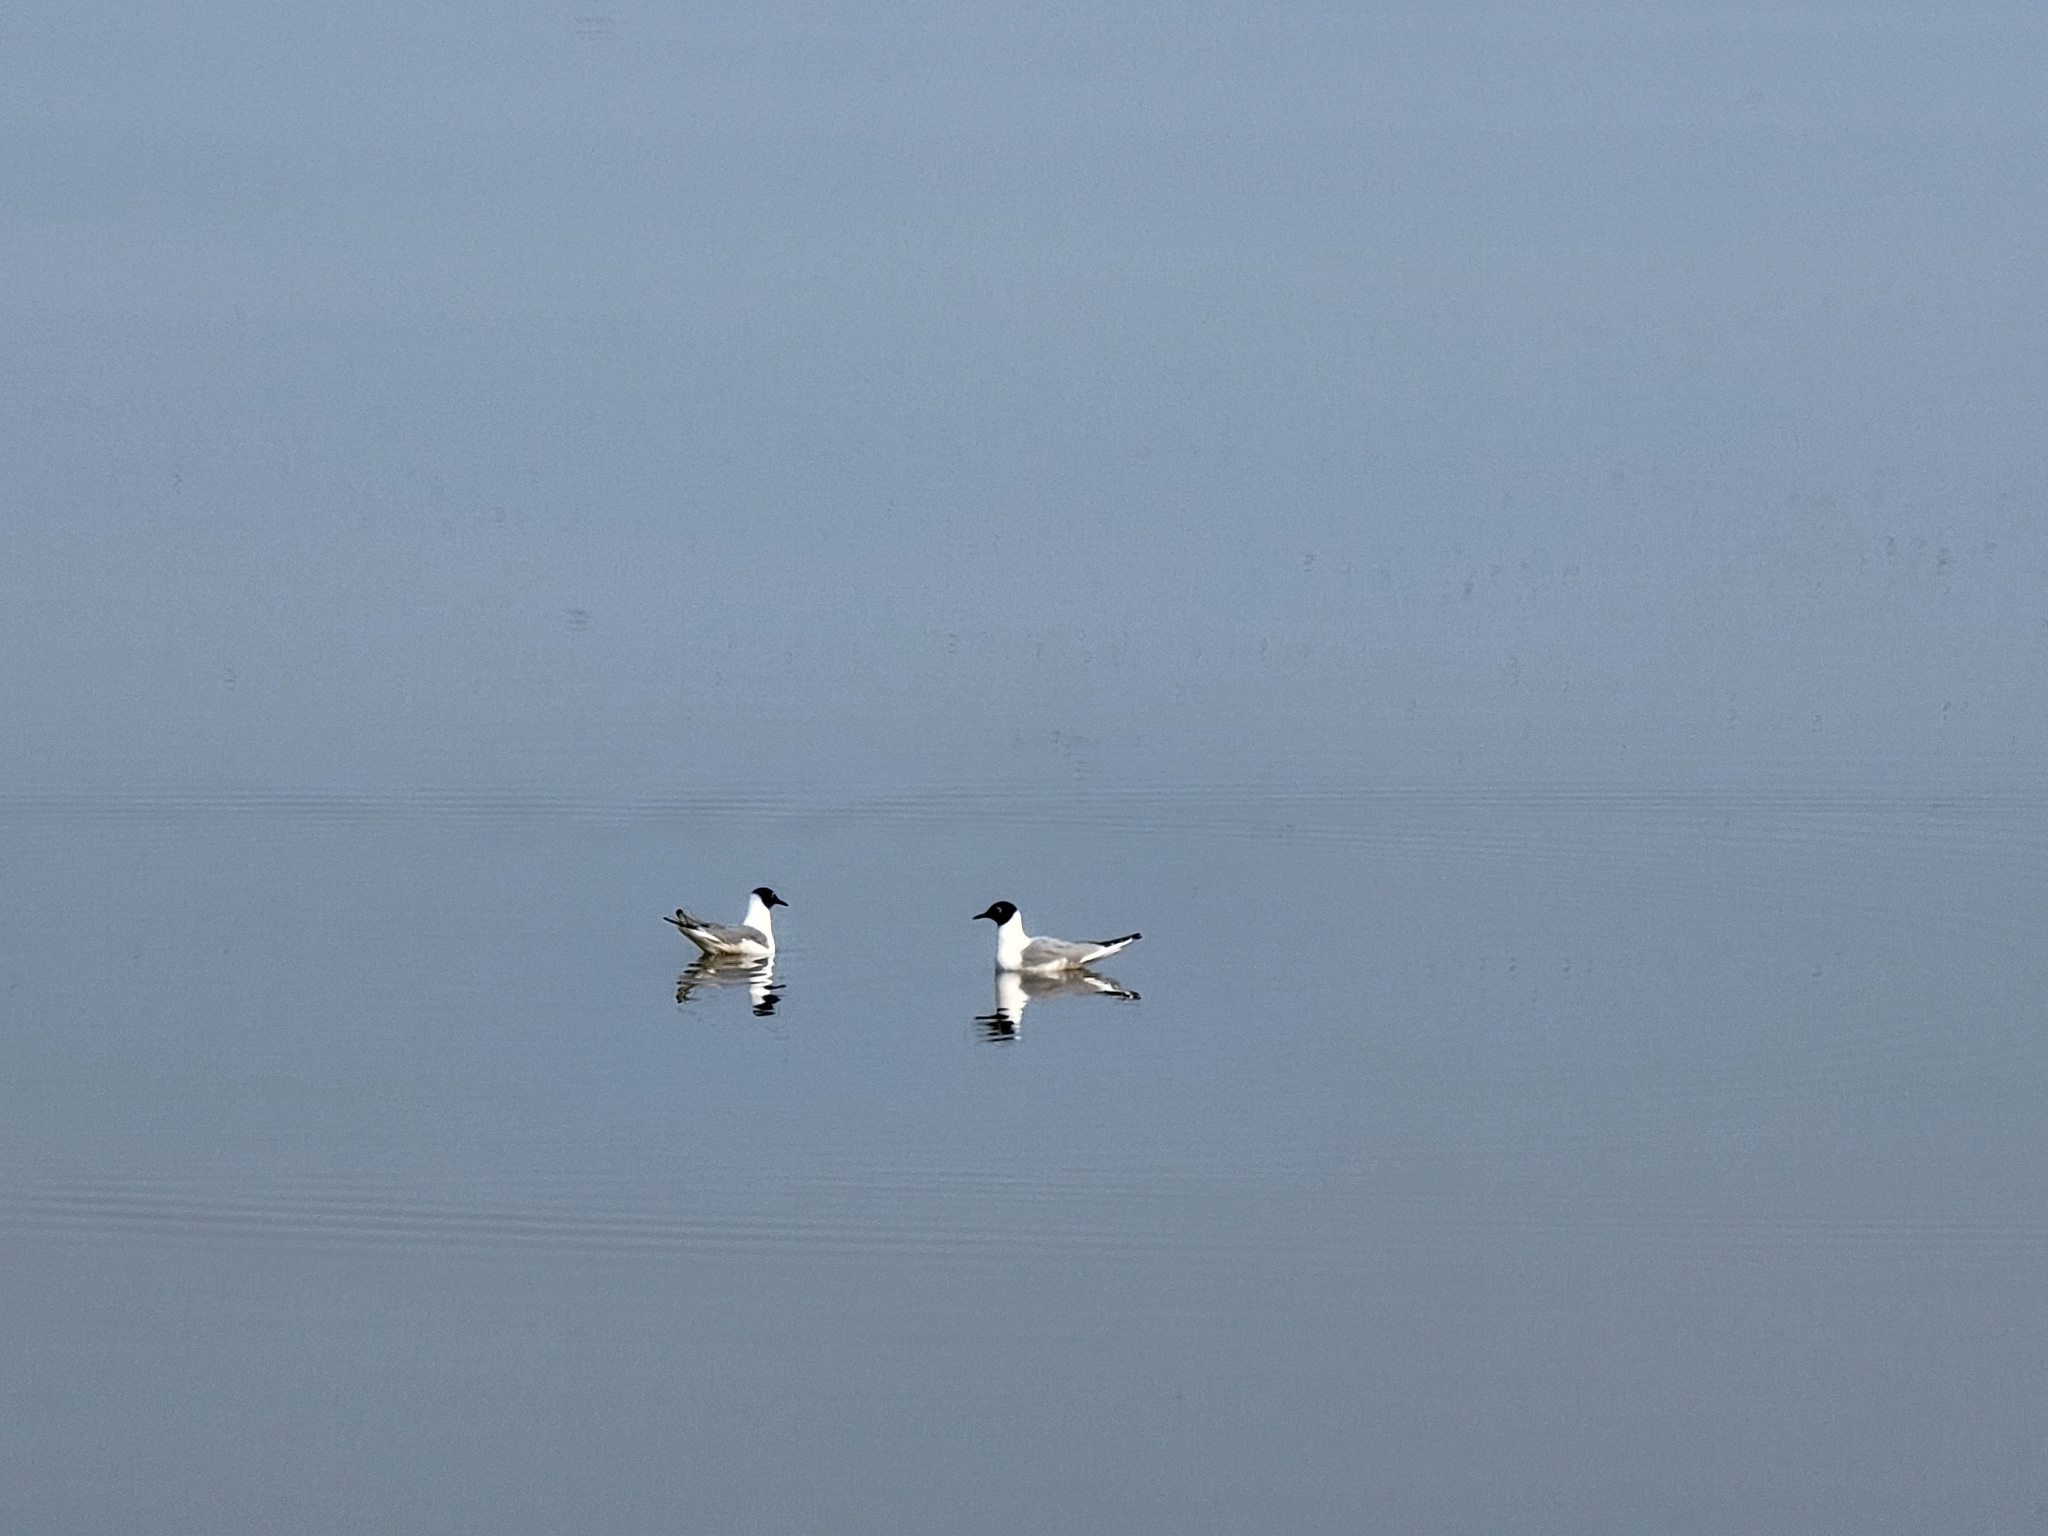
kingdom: Animalia
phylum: Chordata
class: Aves
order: Charadriiformes
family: Laridae
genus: Chroicocephalus
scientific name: Chroicocephalus philadelphia
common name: Bonaparte's gull
